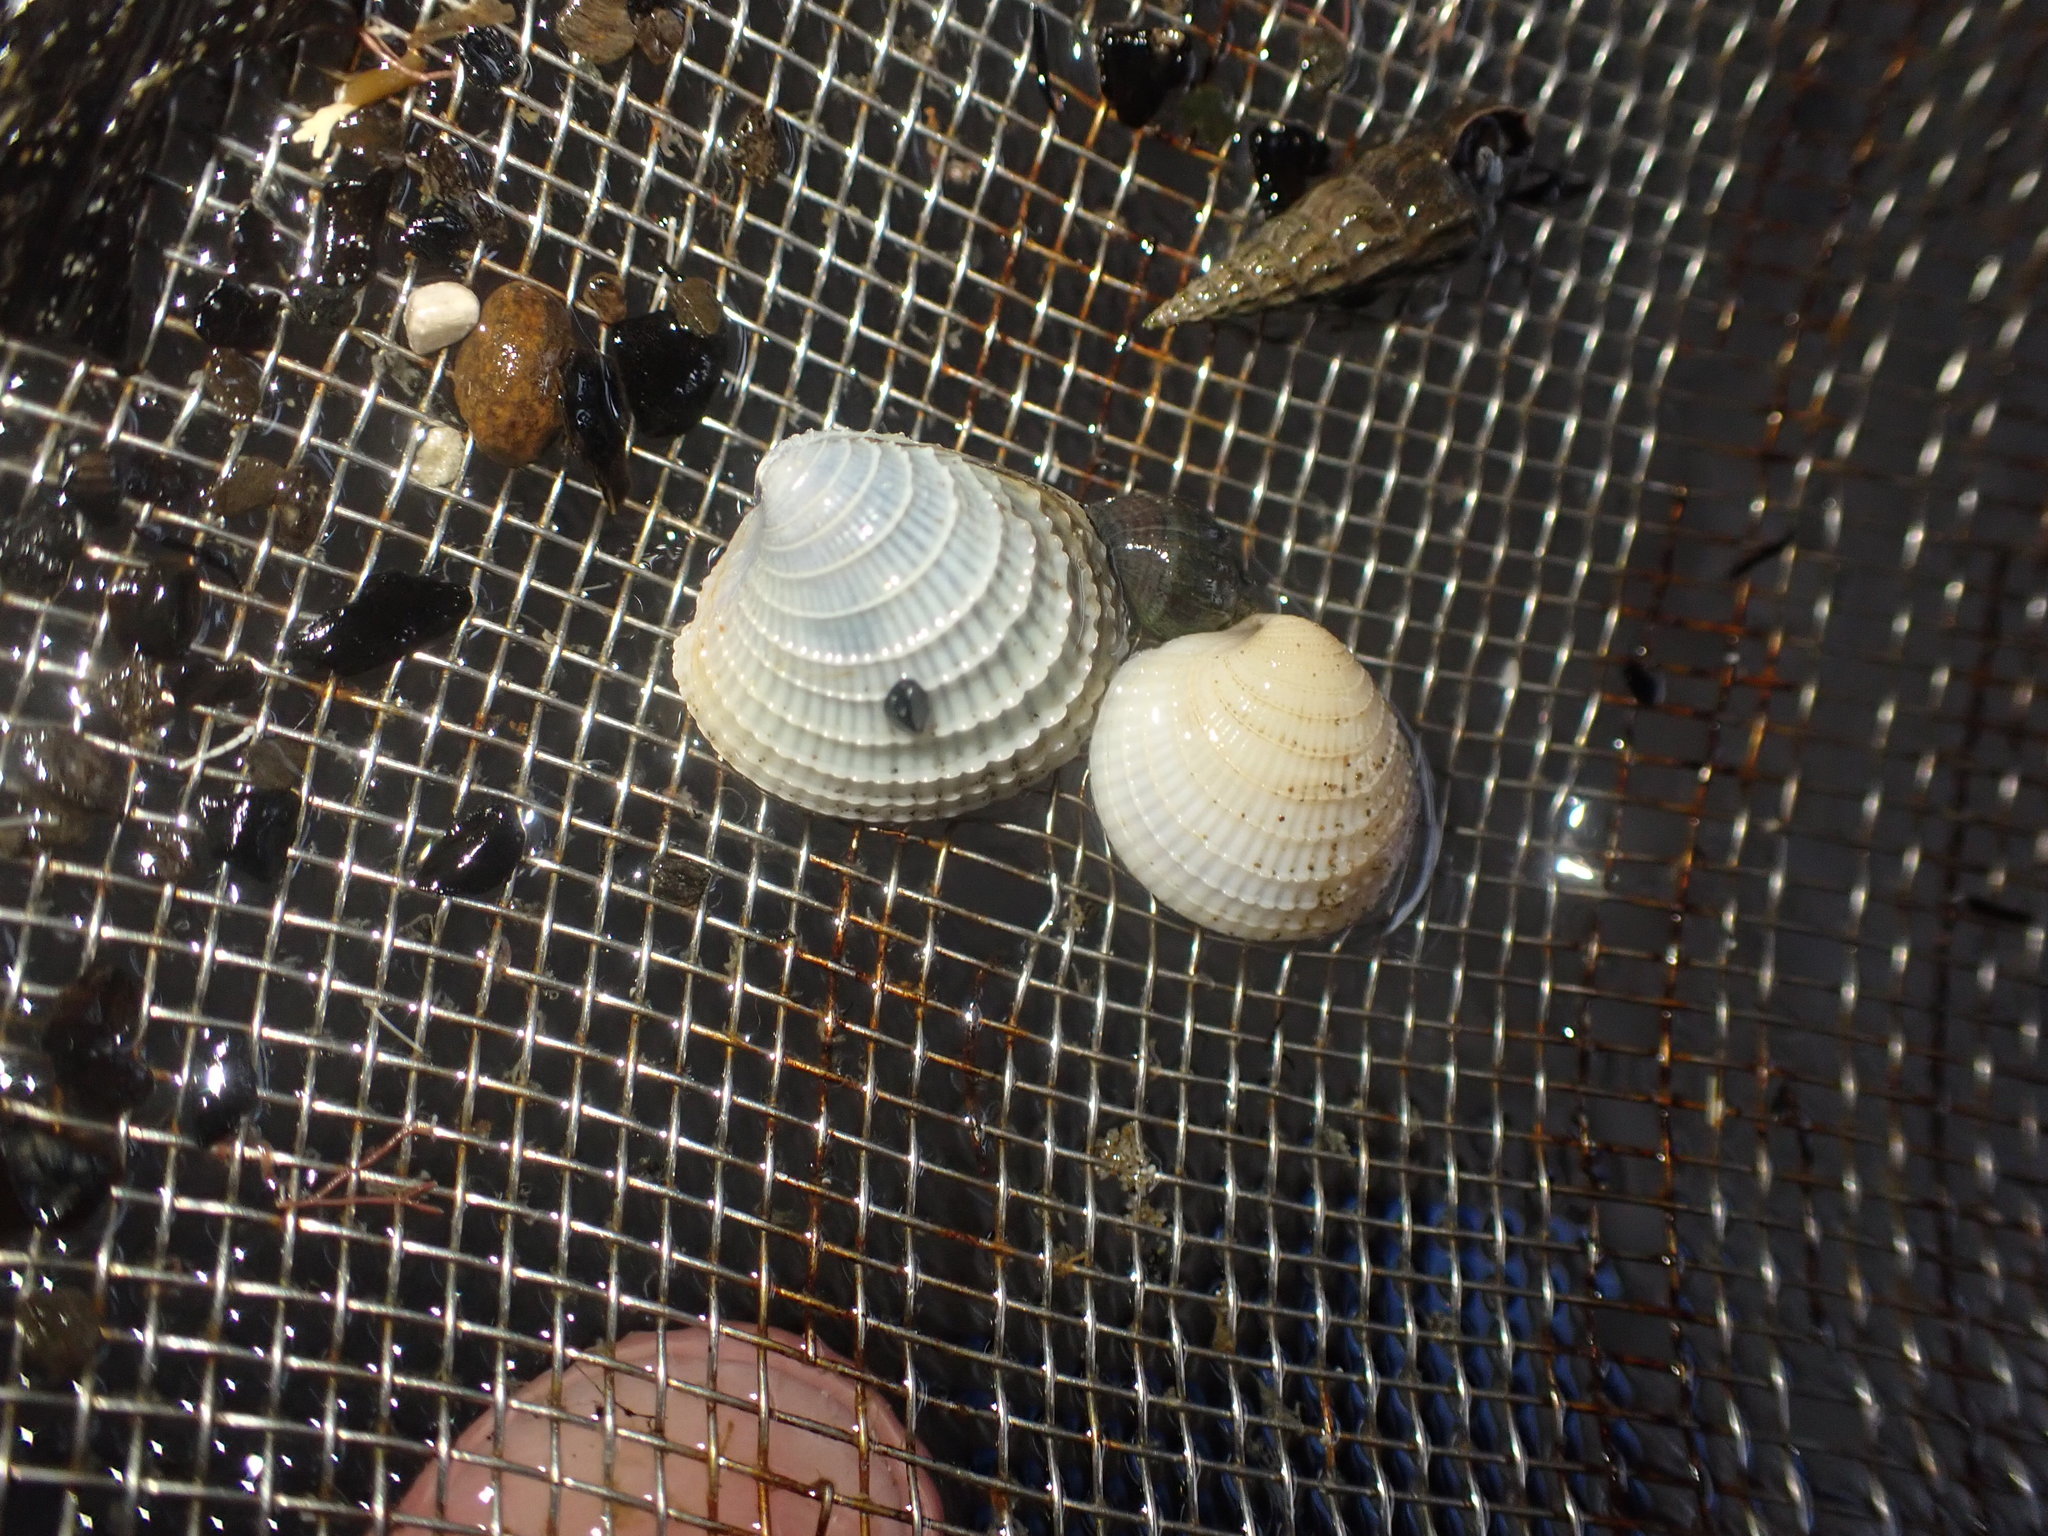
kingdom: Animalia
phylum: Mollusca
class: Bivalvia
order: Venerida
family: Veneridae
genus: Austrovenus
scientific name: Austrovenus stutchburyi
